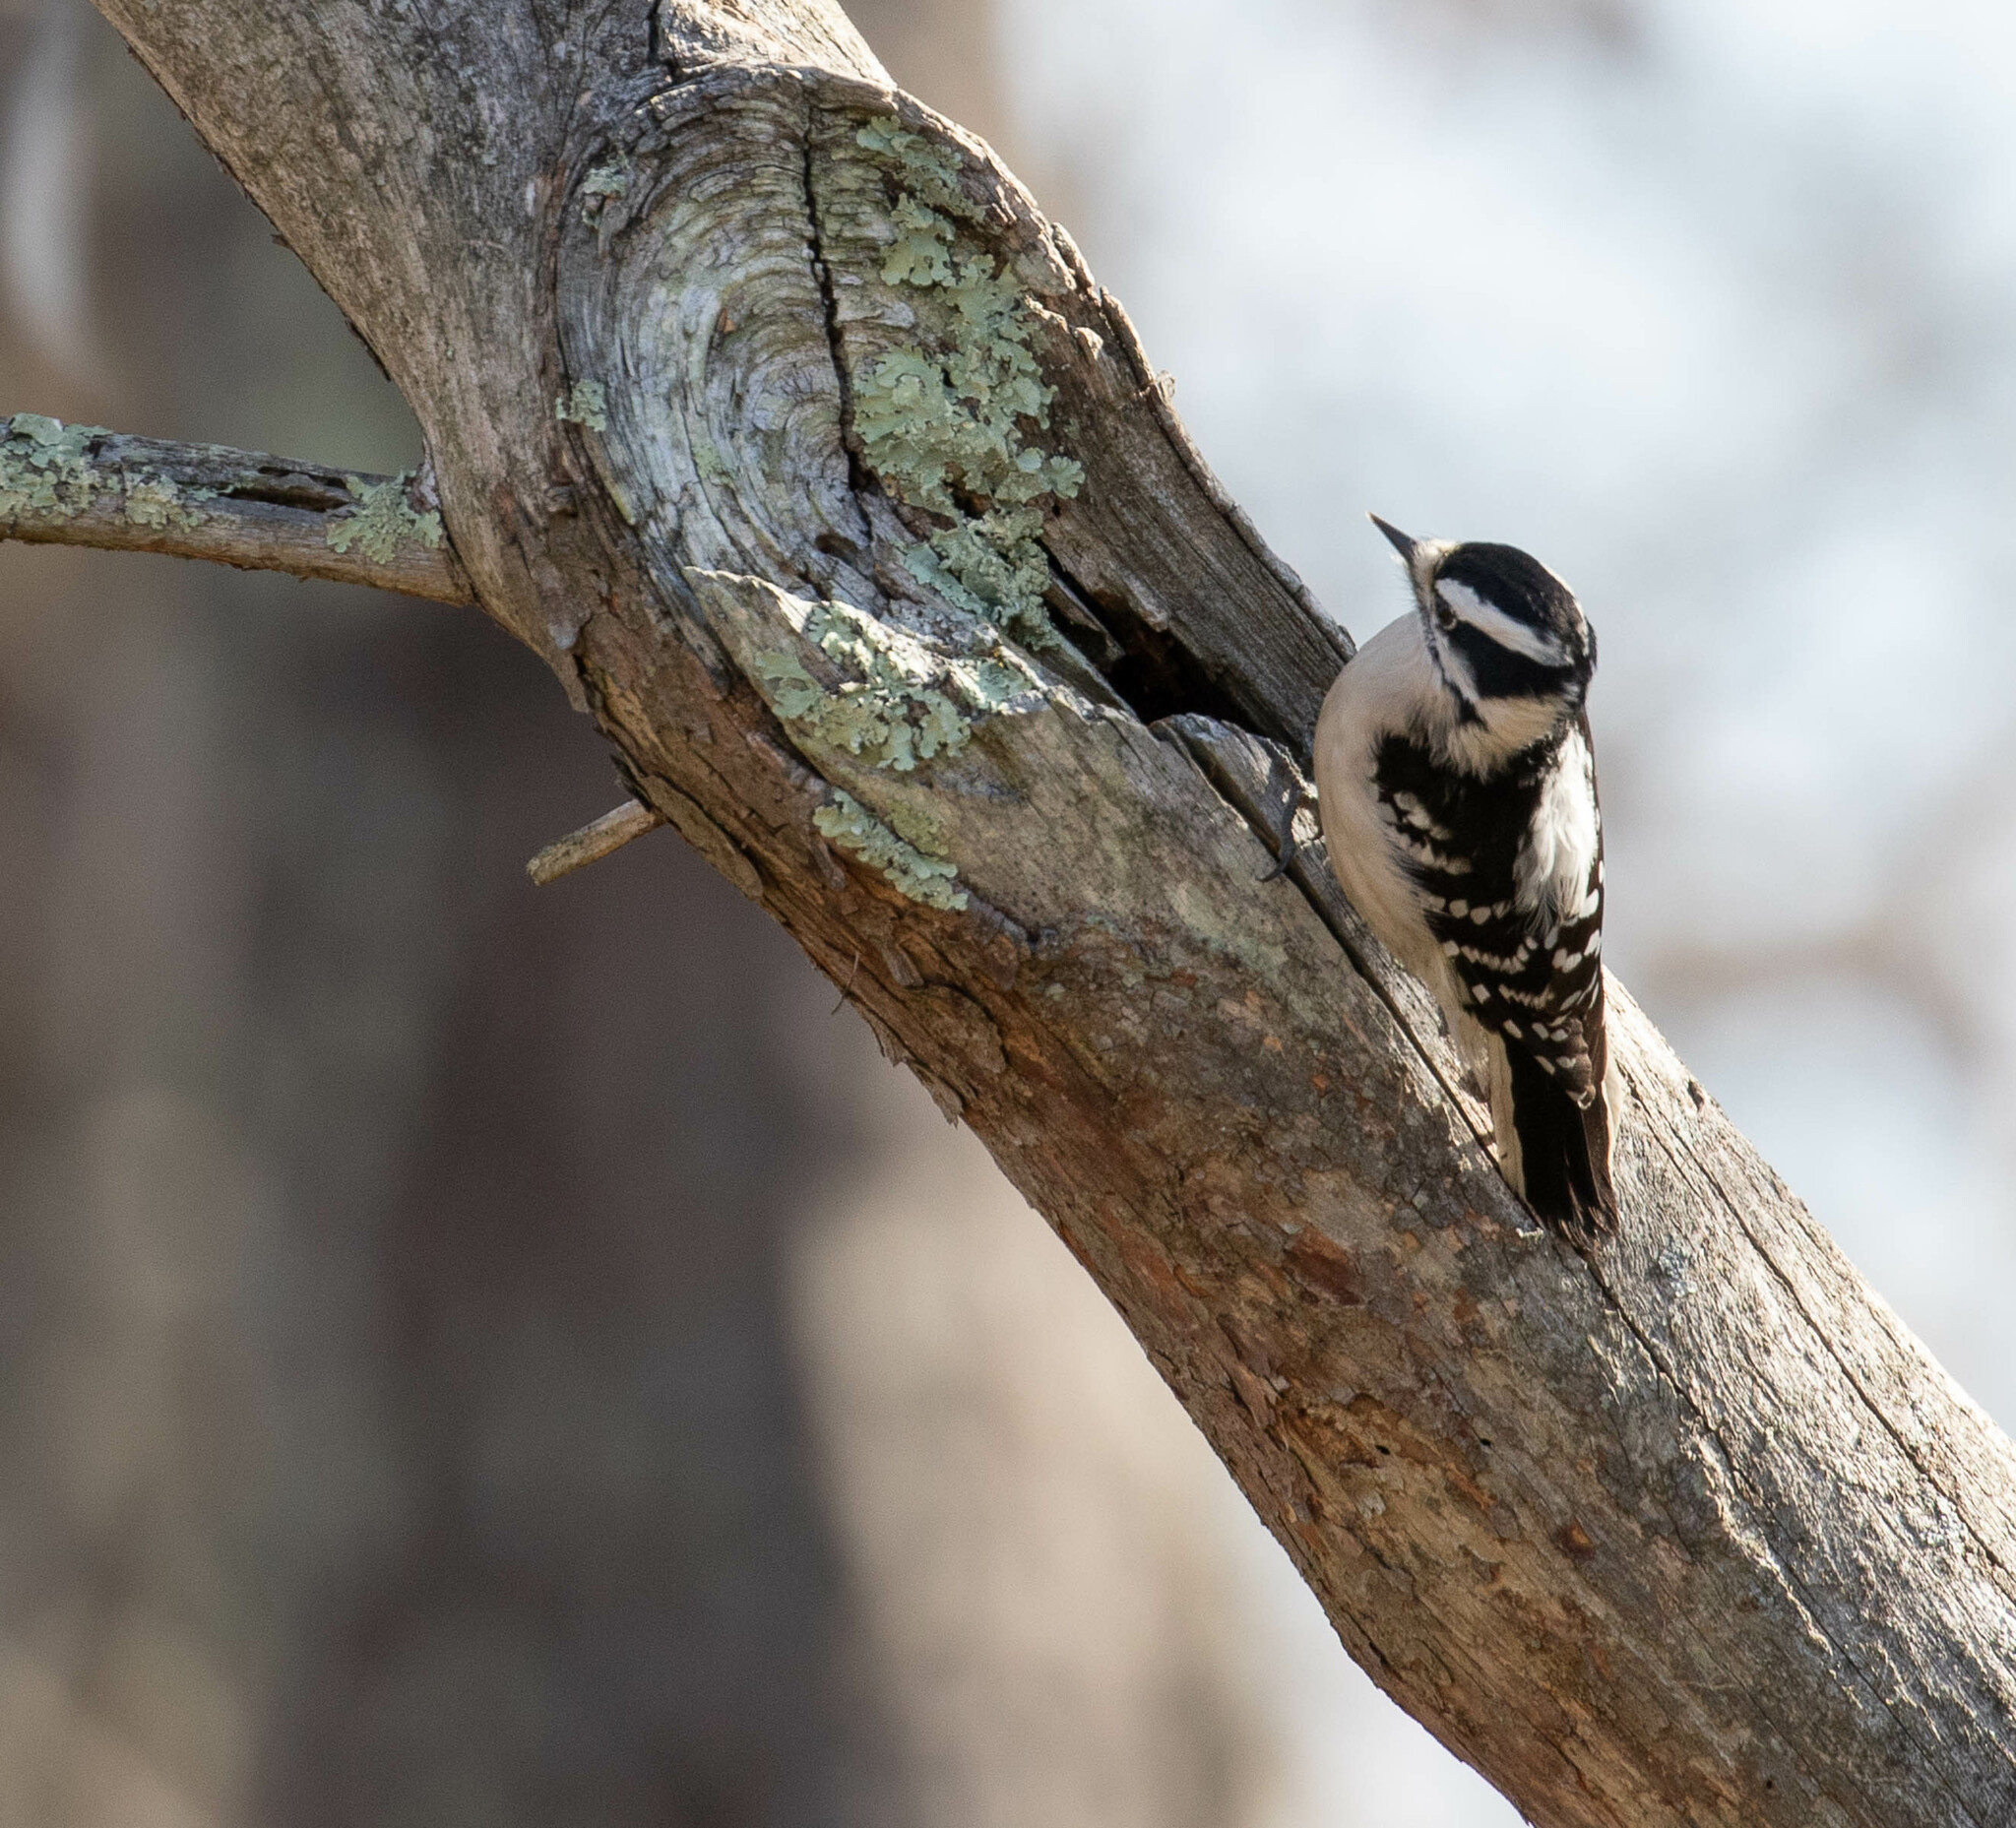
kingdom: Animalia
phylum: Chordata
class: Aves
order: Piciformes
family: Picidae
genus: Dryobates
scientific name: Dryobates pubescens
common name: Downy woodpecker
